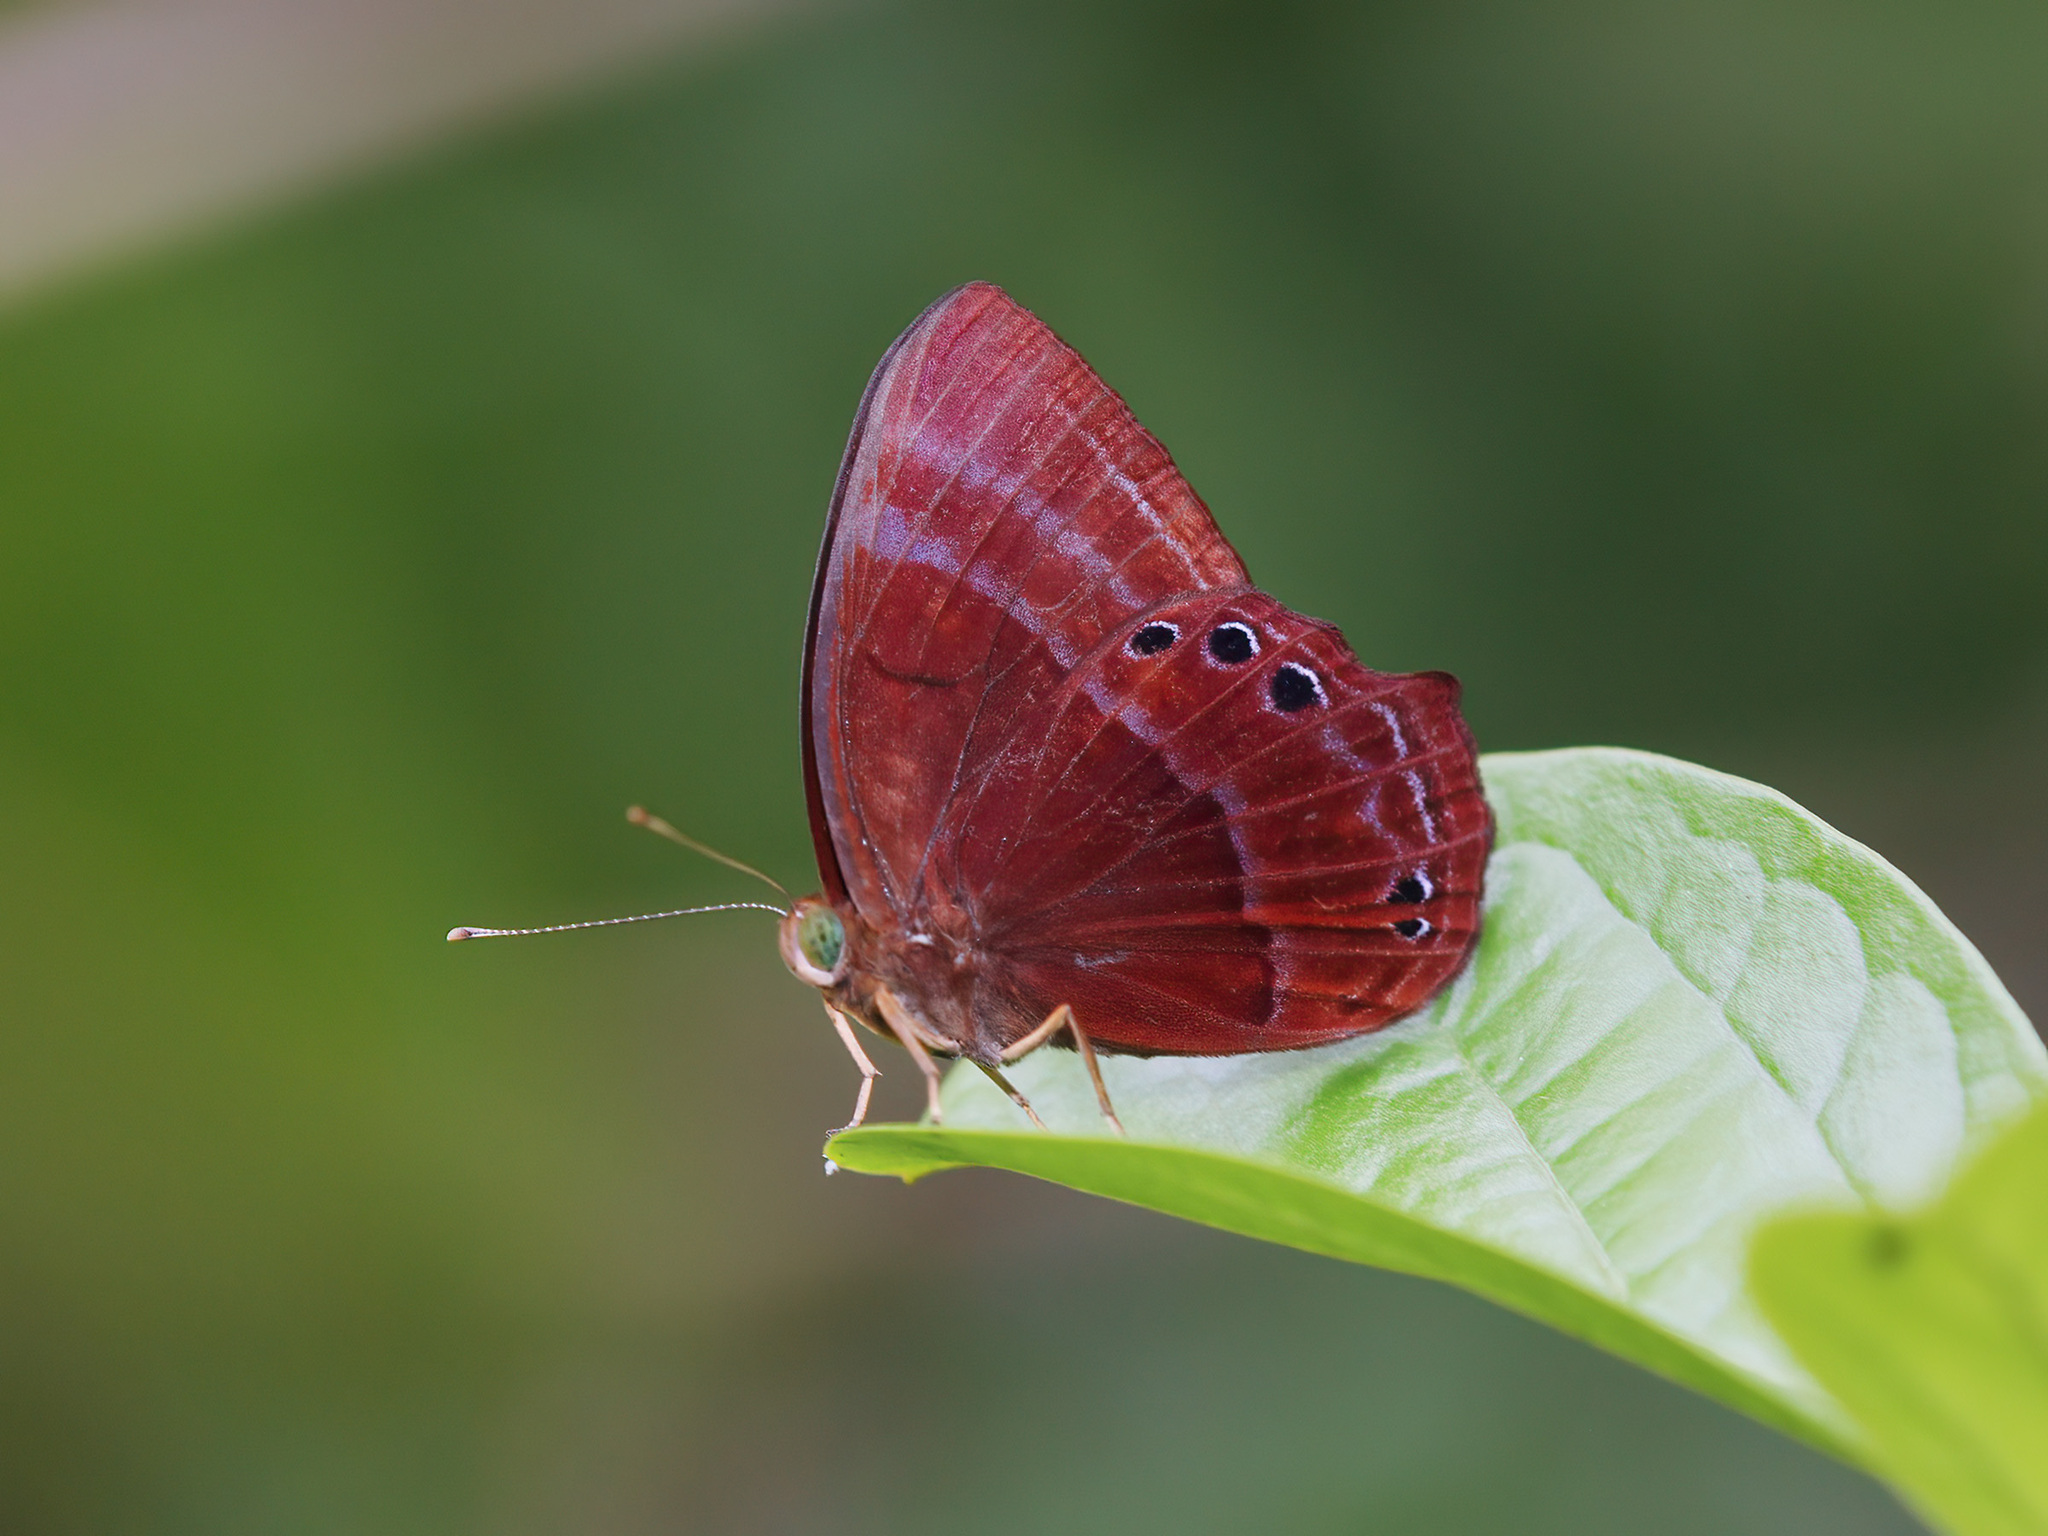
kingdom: Animalia
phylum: Arthropoda
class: Insecta
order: Lepidoptera
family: Lycaenidae
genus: Abisara
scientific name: Abisara saturata
